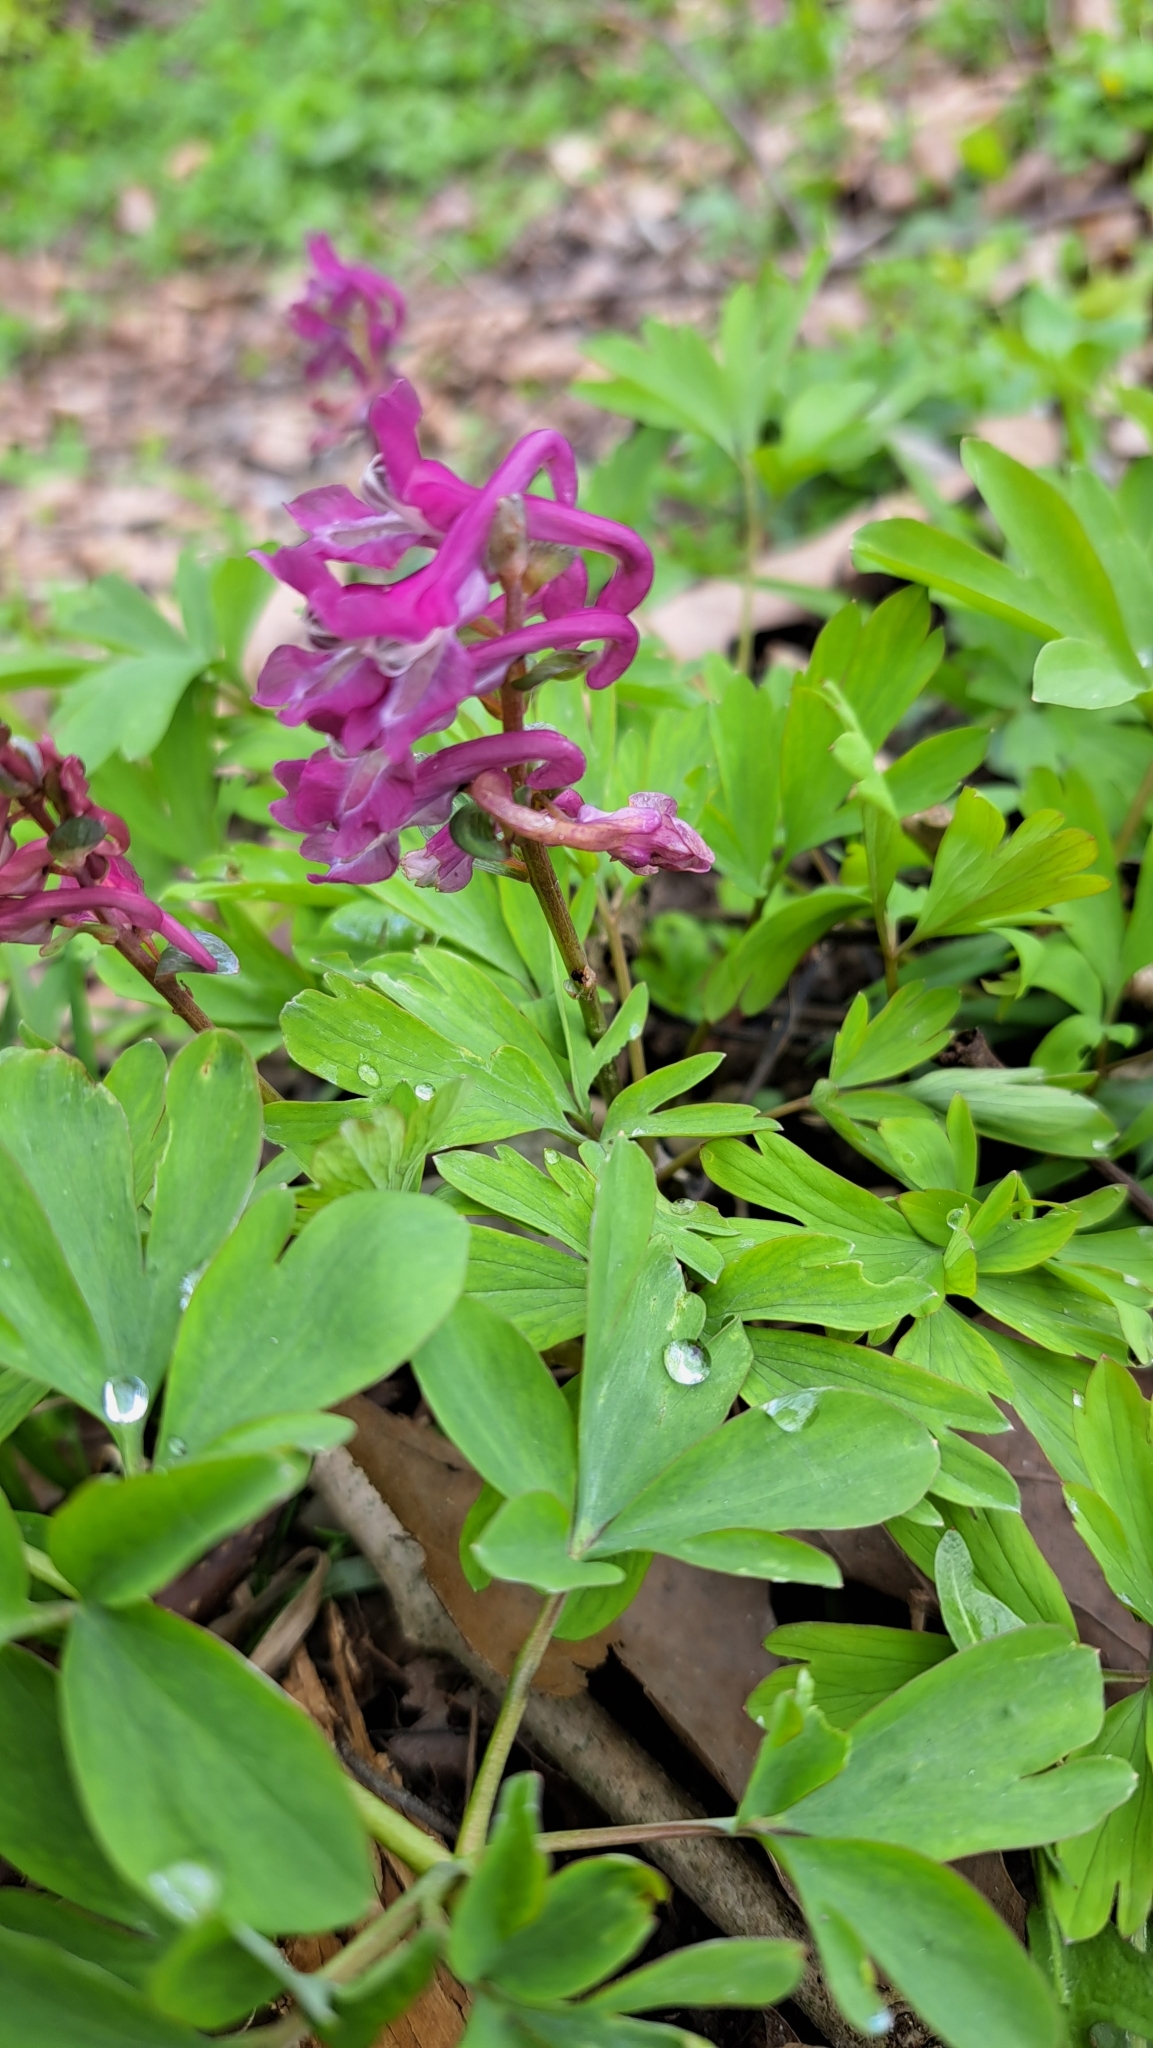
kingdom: Plantae
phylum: Tracheophyta
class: Magnoliopsida
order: Ranunculales
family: Papaveraceae
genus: Corydalis
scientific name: Corydalis cava
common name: Hollowroot
